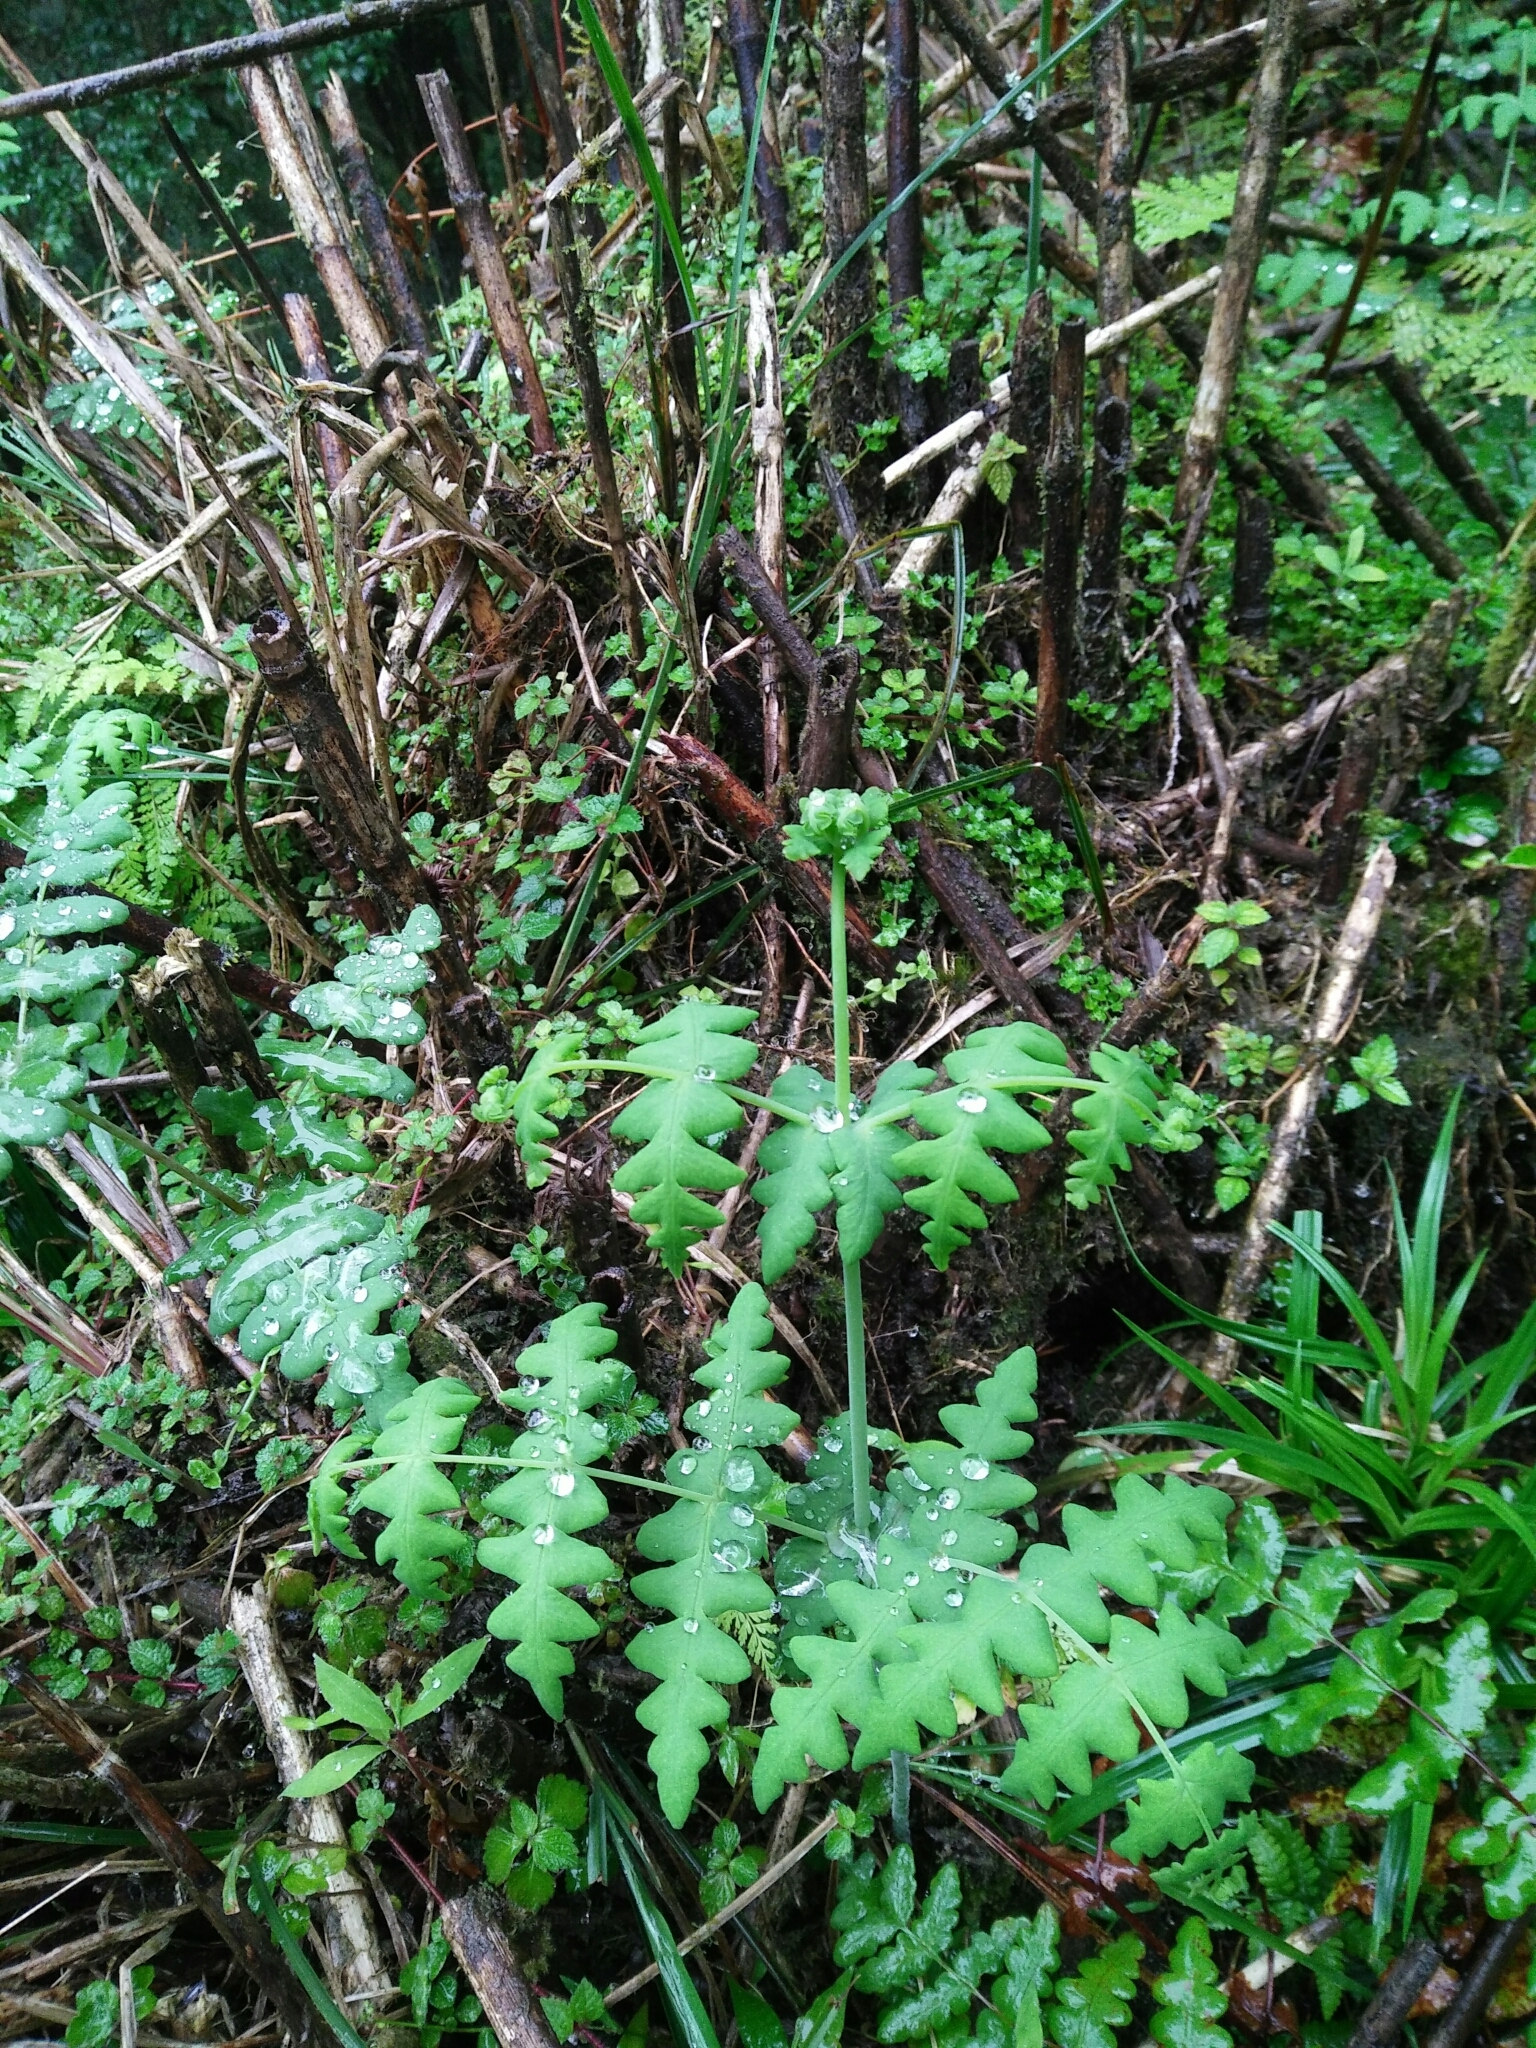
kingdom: Plantae
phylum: Tracheophyta
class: Polypodiopsida
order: Polypodiales
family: Dennstaedtiaceae
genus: Histiopteris
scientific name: Histiopteris incisa
